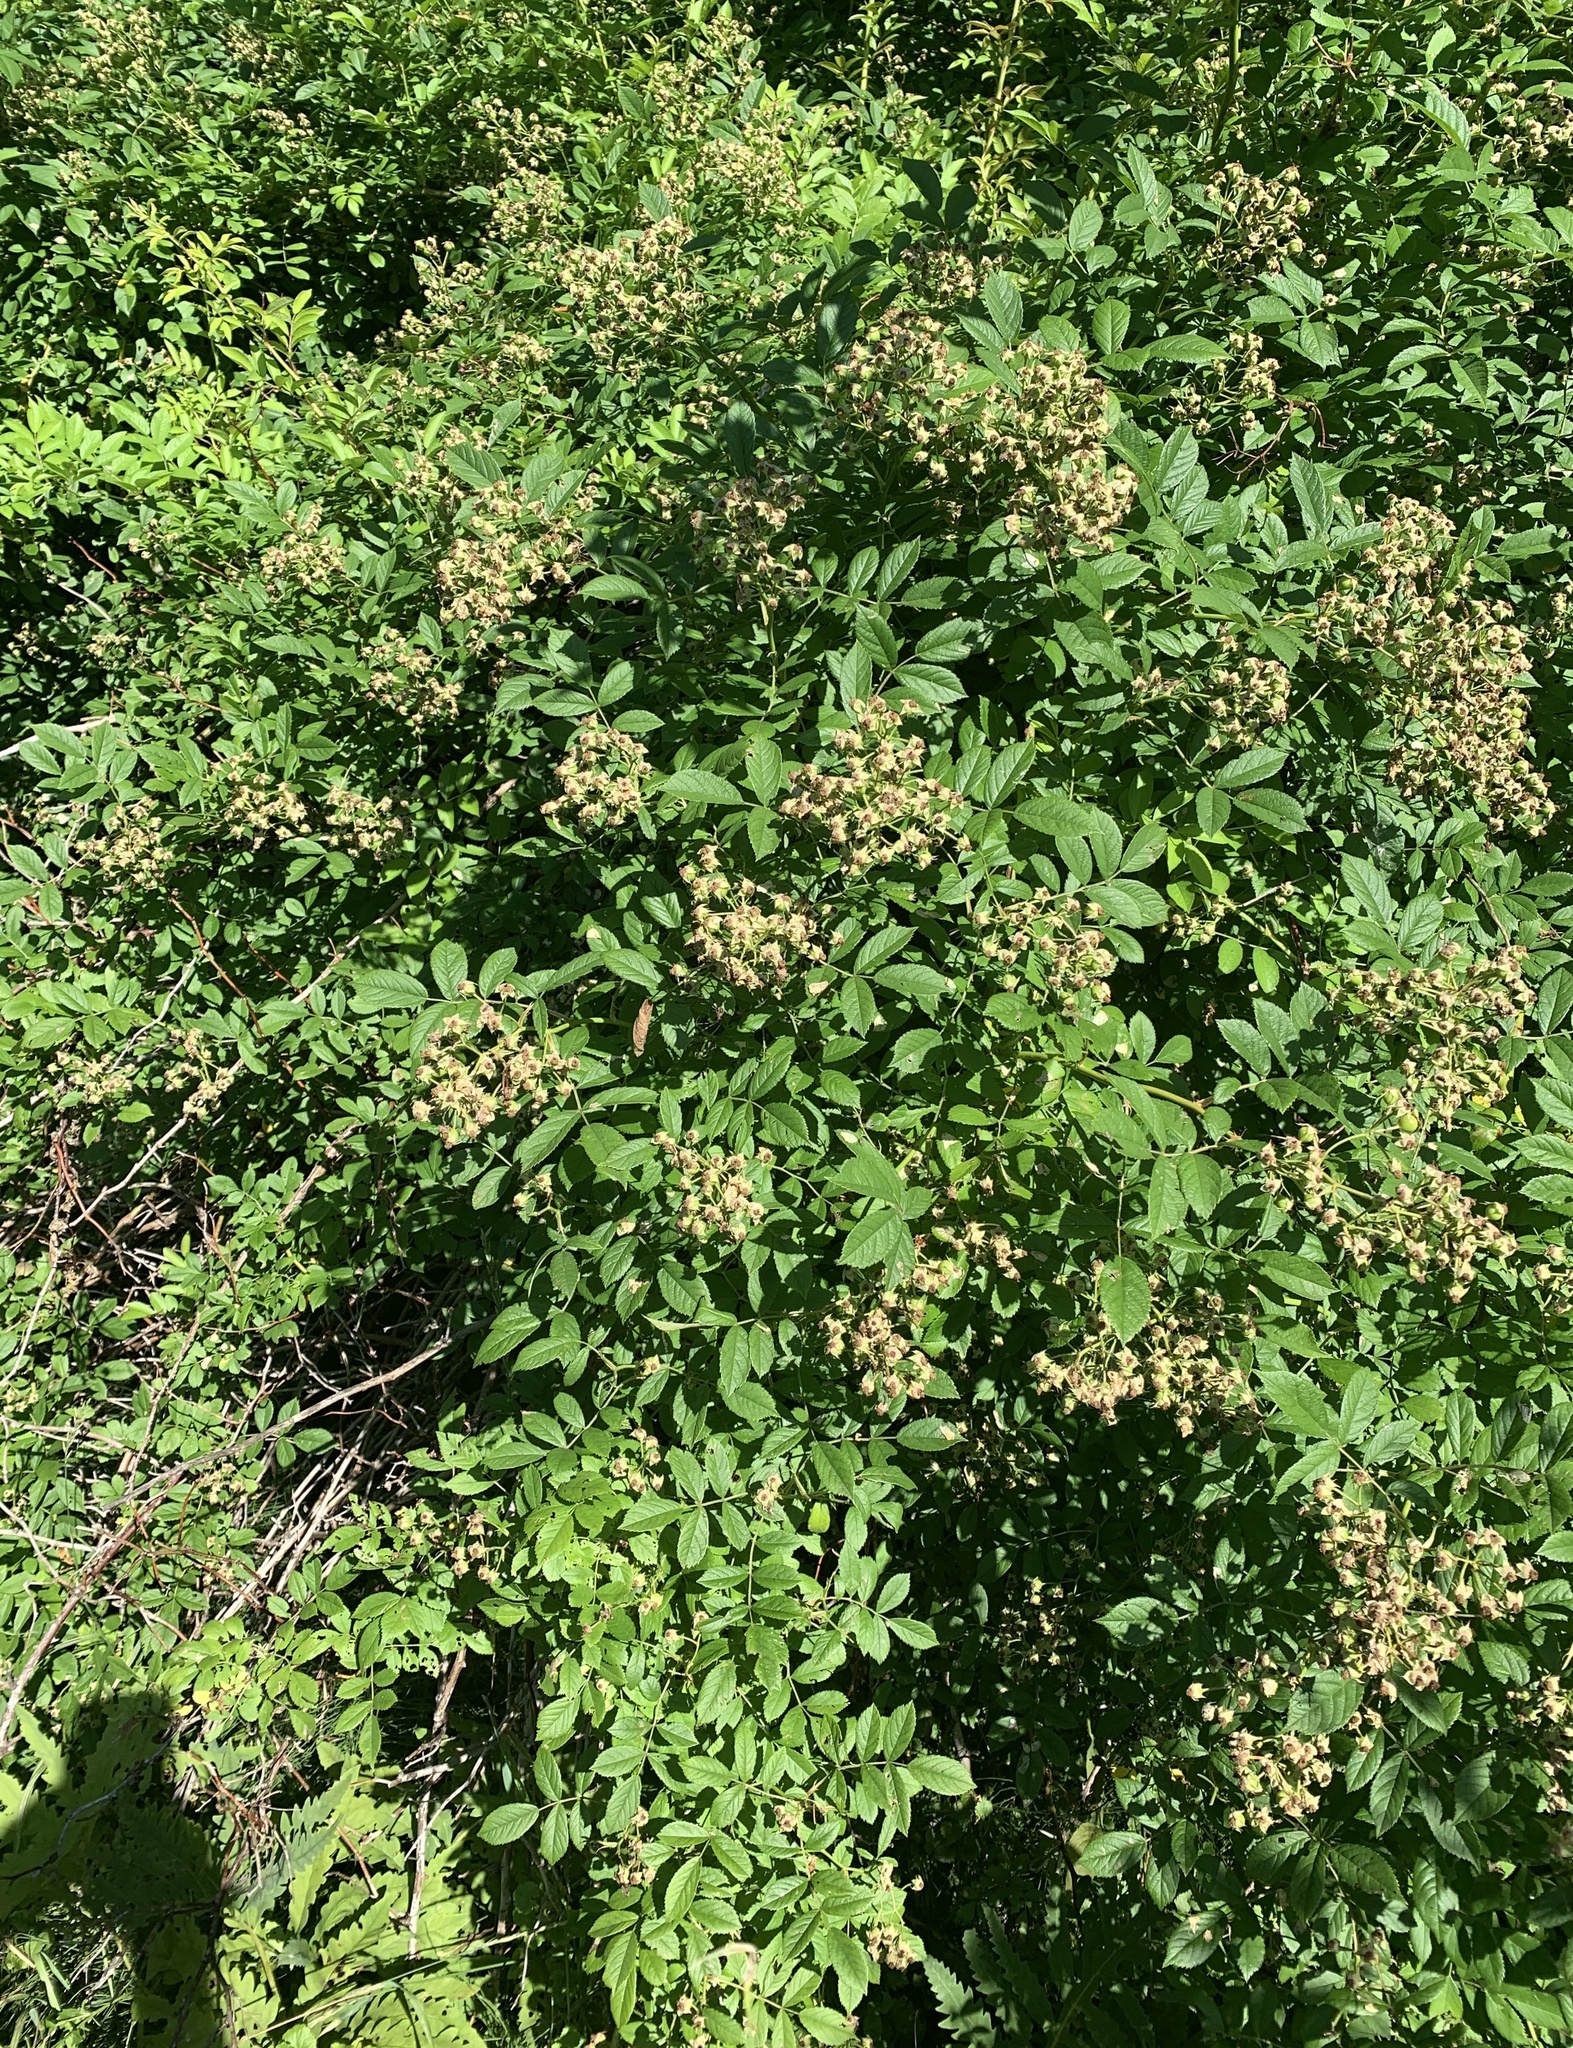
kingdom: Plantae
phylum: Tracheophyta
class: Magnoliopsida
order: Rosales
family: Rosaceae
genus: Rosa
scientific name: Rosa multiflora
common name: Multiflora rose
